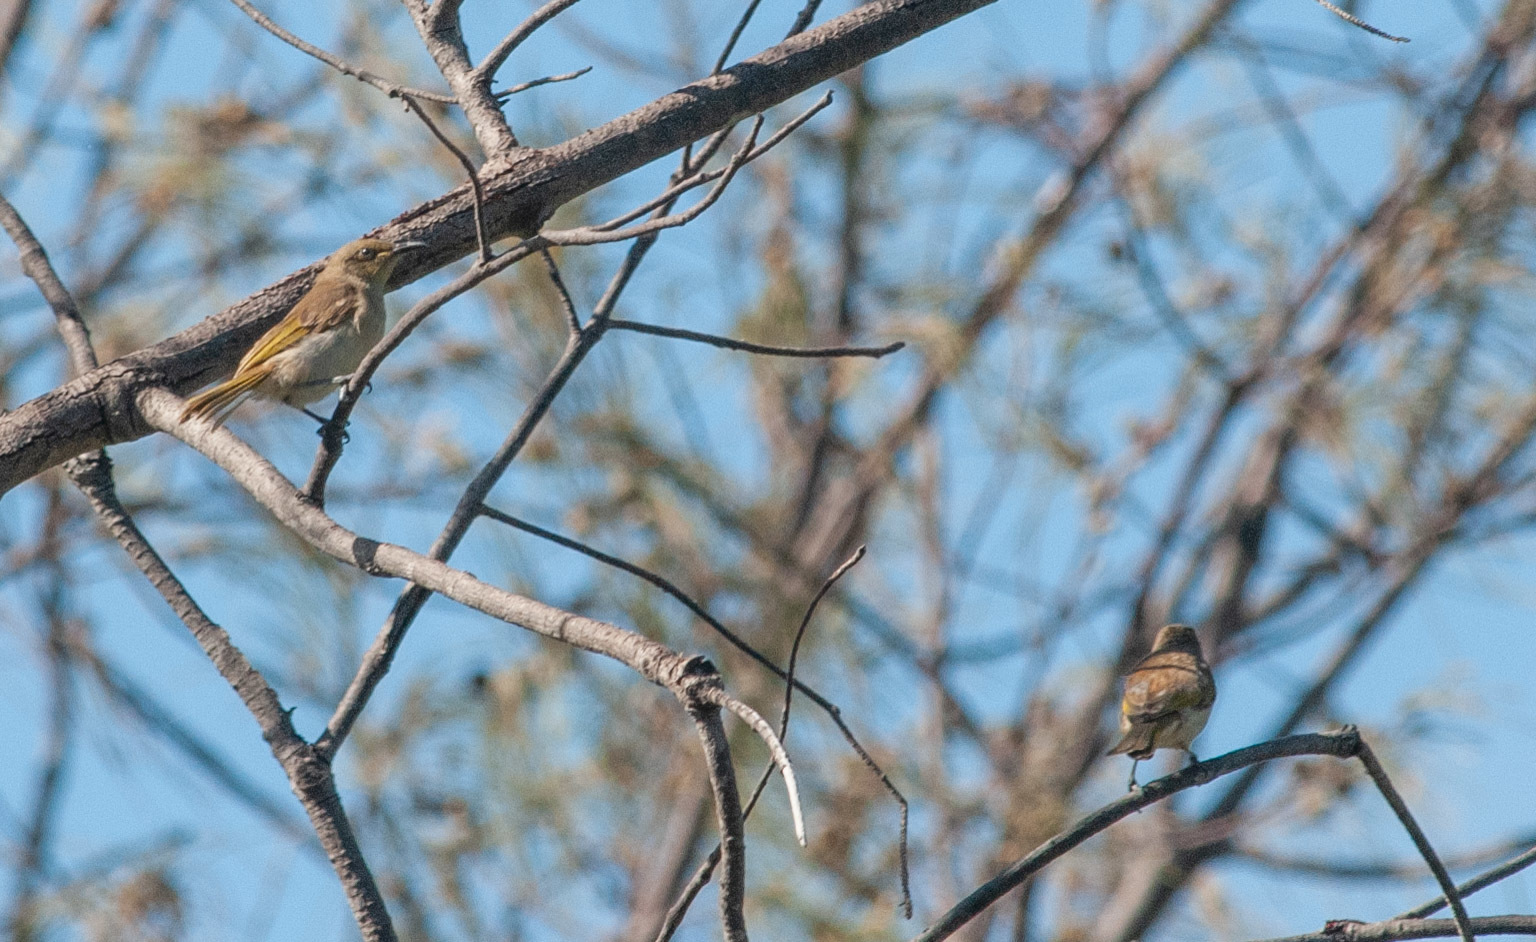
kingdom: Animalia
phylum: Chordata
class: Aves
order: Passeriformes
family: Meliphagidae
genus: Lichmera
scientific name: Lichmera indistincta
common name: Brown honeyeater
